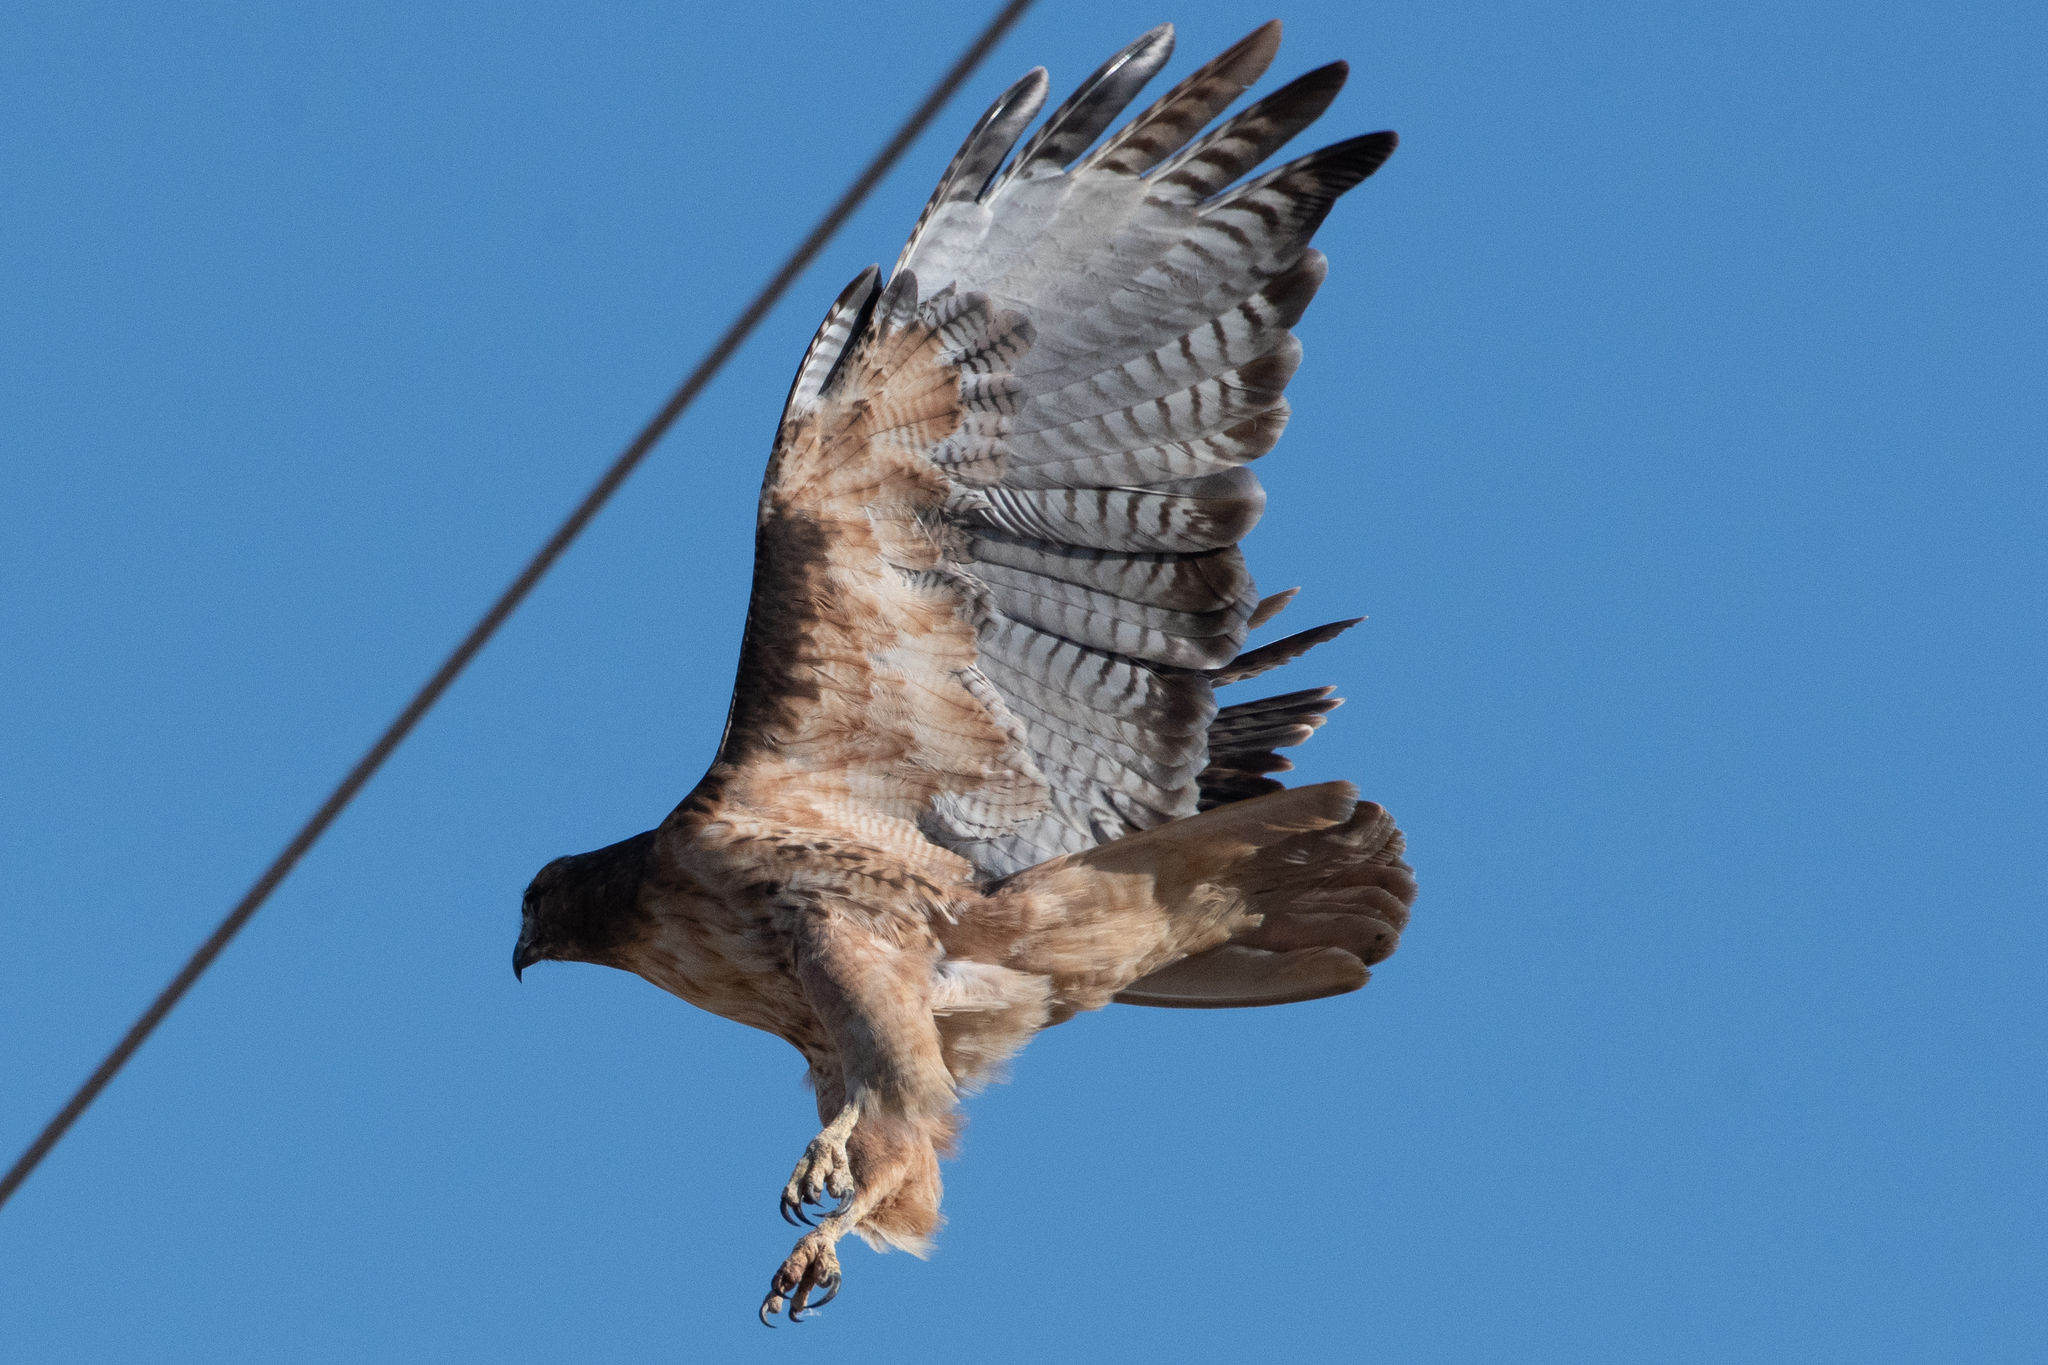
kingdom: Animalia
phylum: Chordata
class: Aves
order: Accipitriformes
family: Accipitridae
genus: Buteo
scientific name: Buteo jamaicensis
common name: Red-tailed hawk
